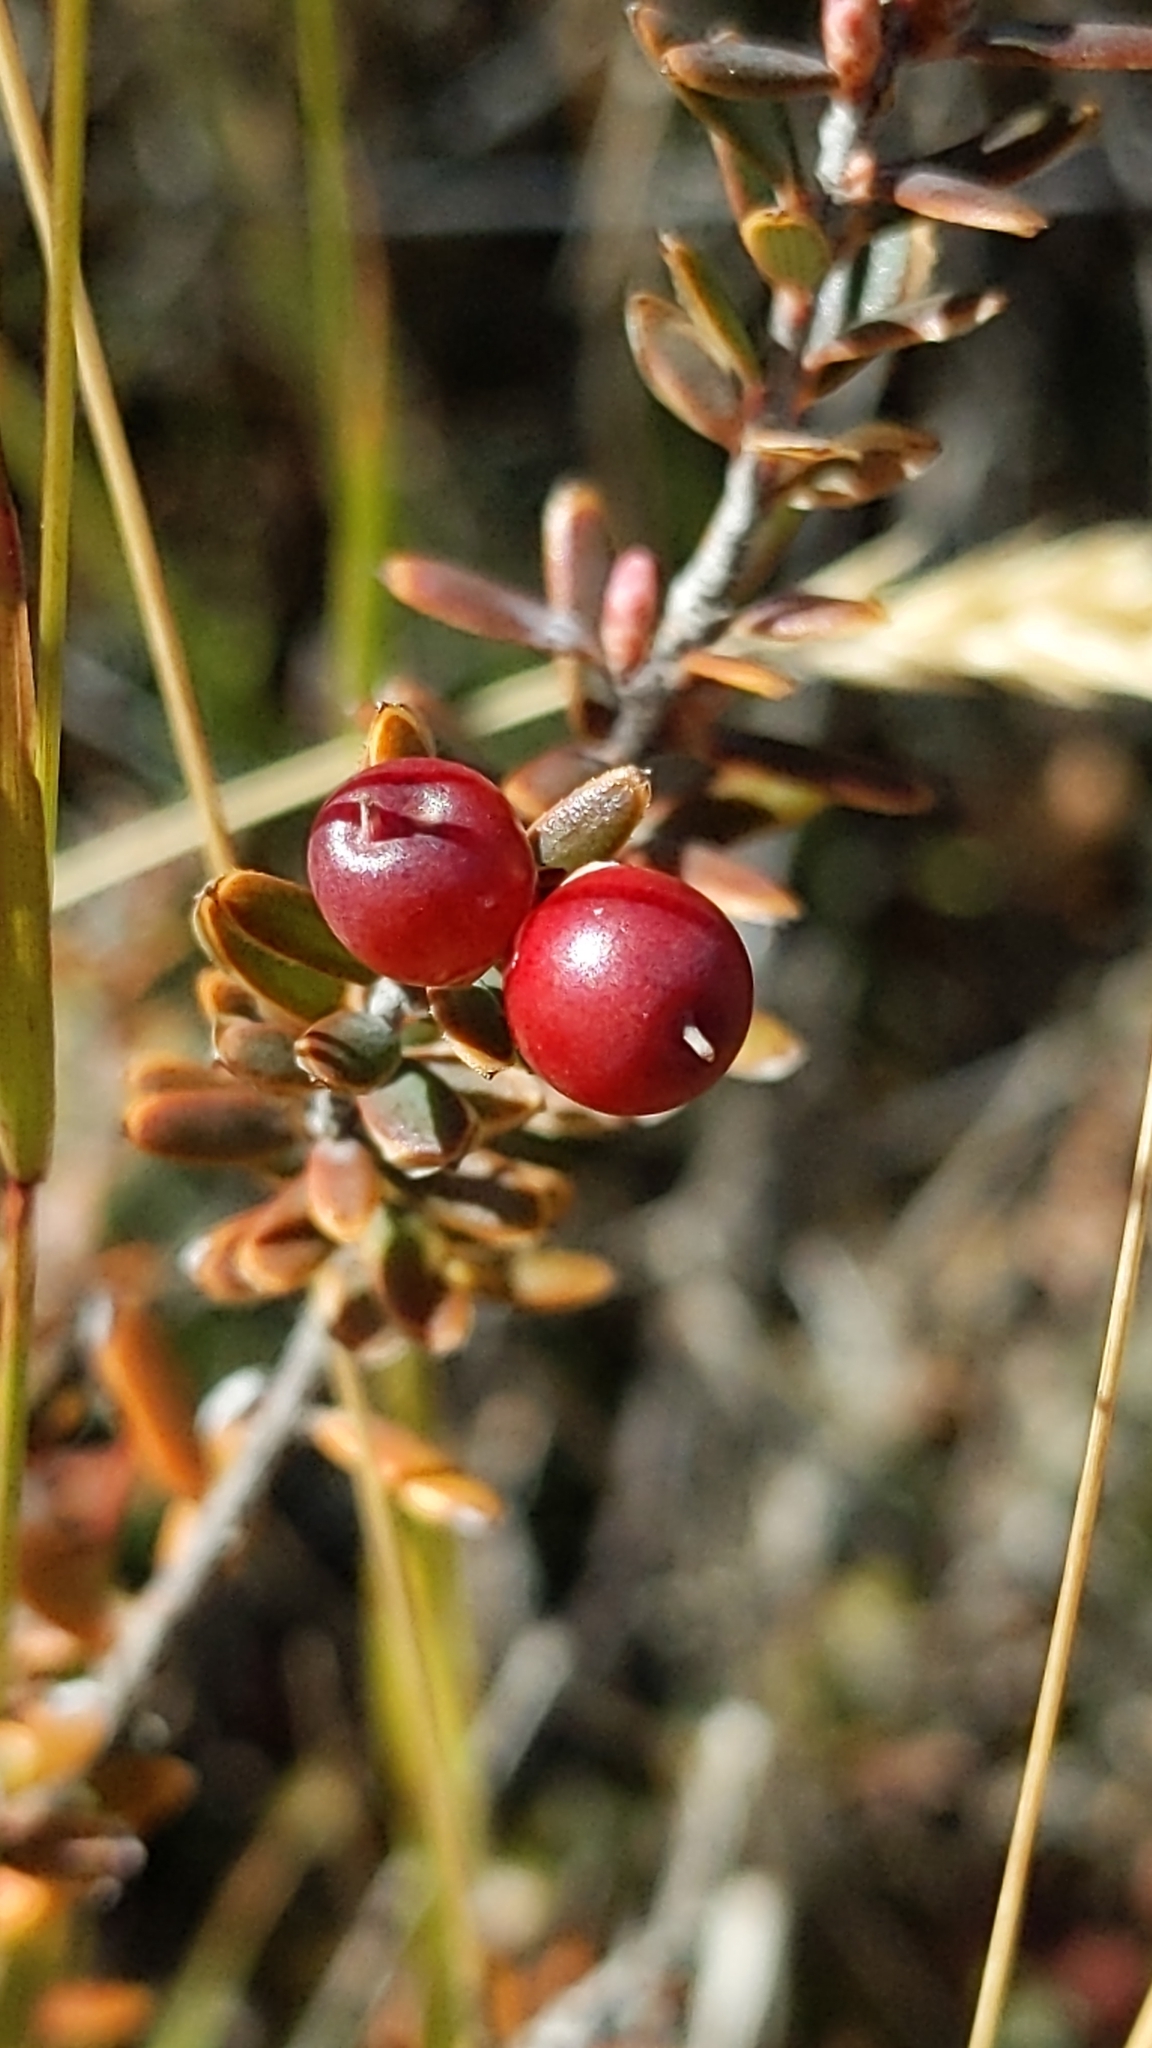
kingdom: Plantae
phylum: Tracheophyta
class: Magnoliopsida
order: Ericales
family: Ericaceae
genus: Acrothamnus
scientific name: Acrothamnus colensoi
